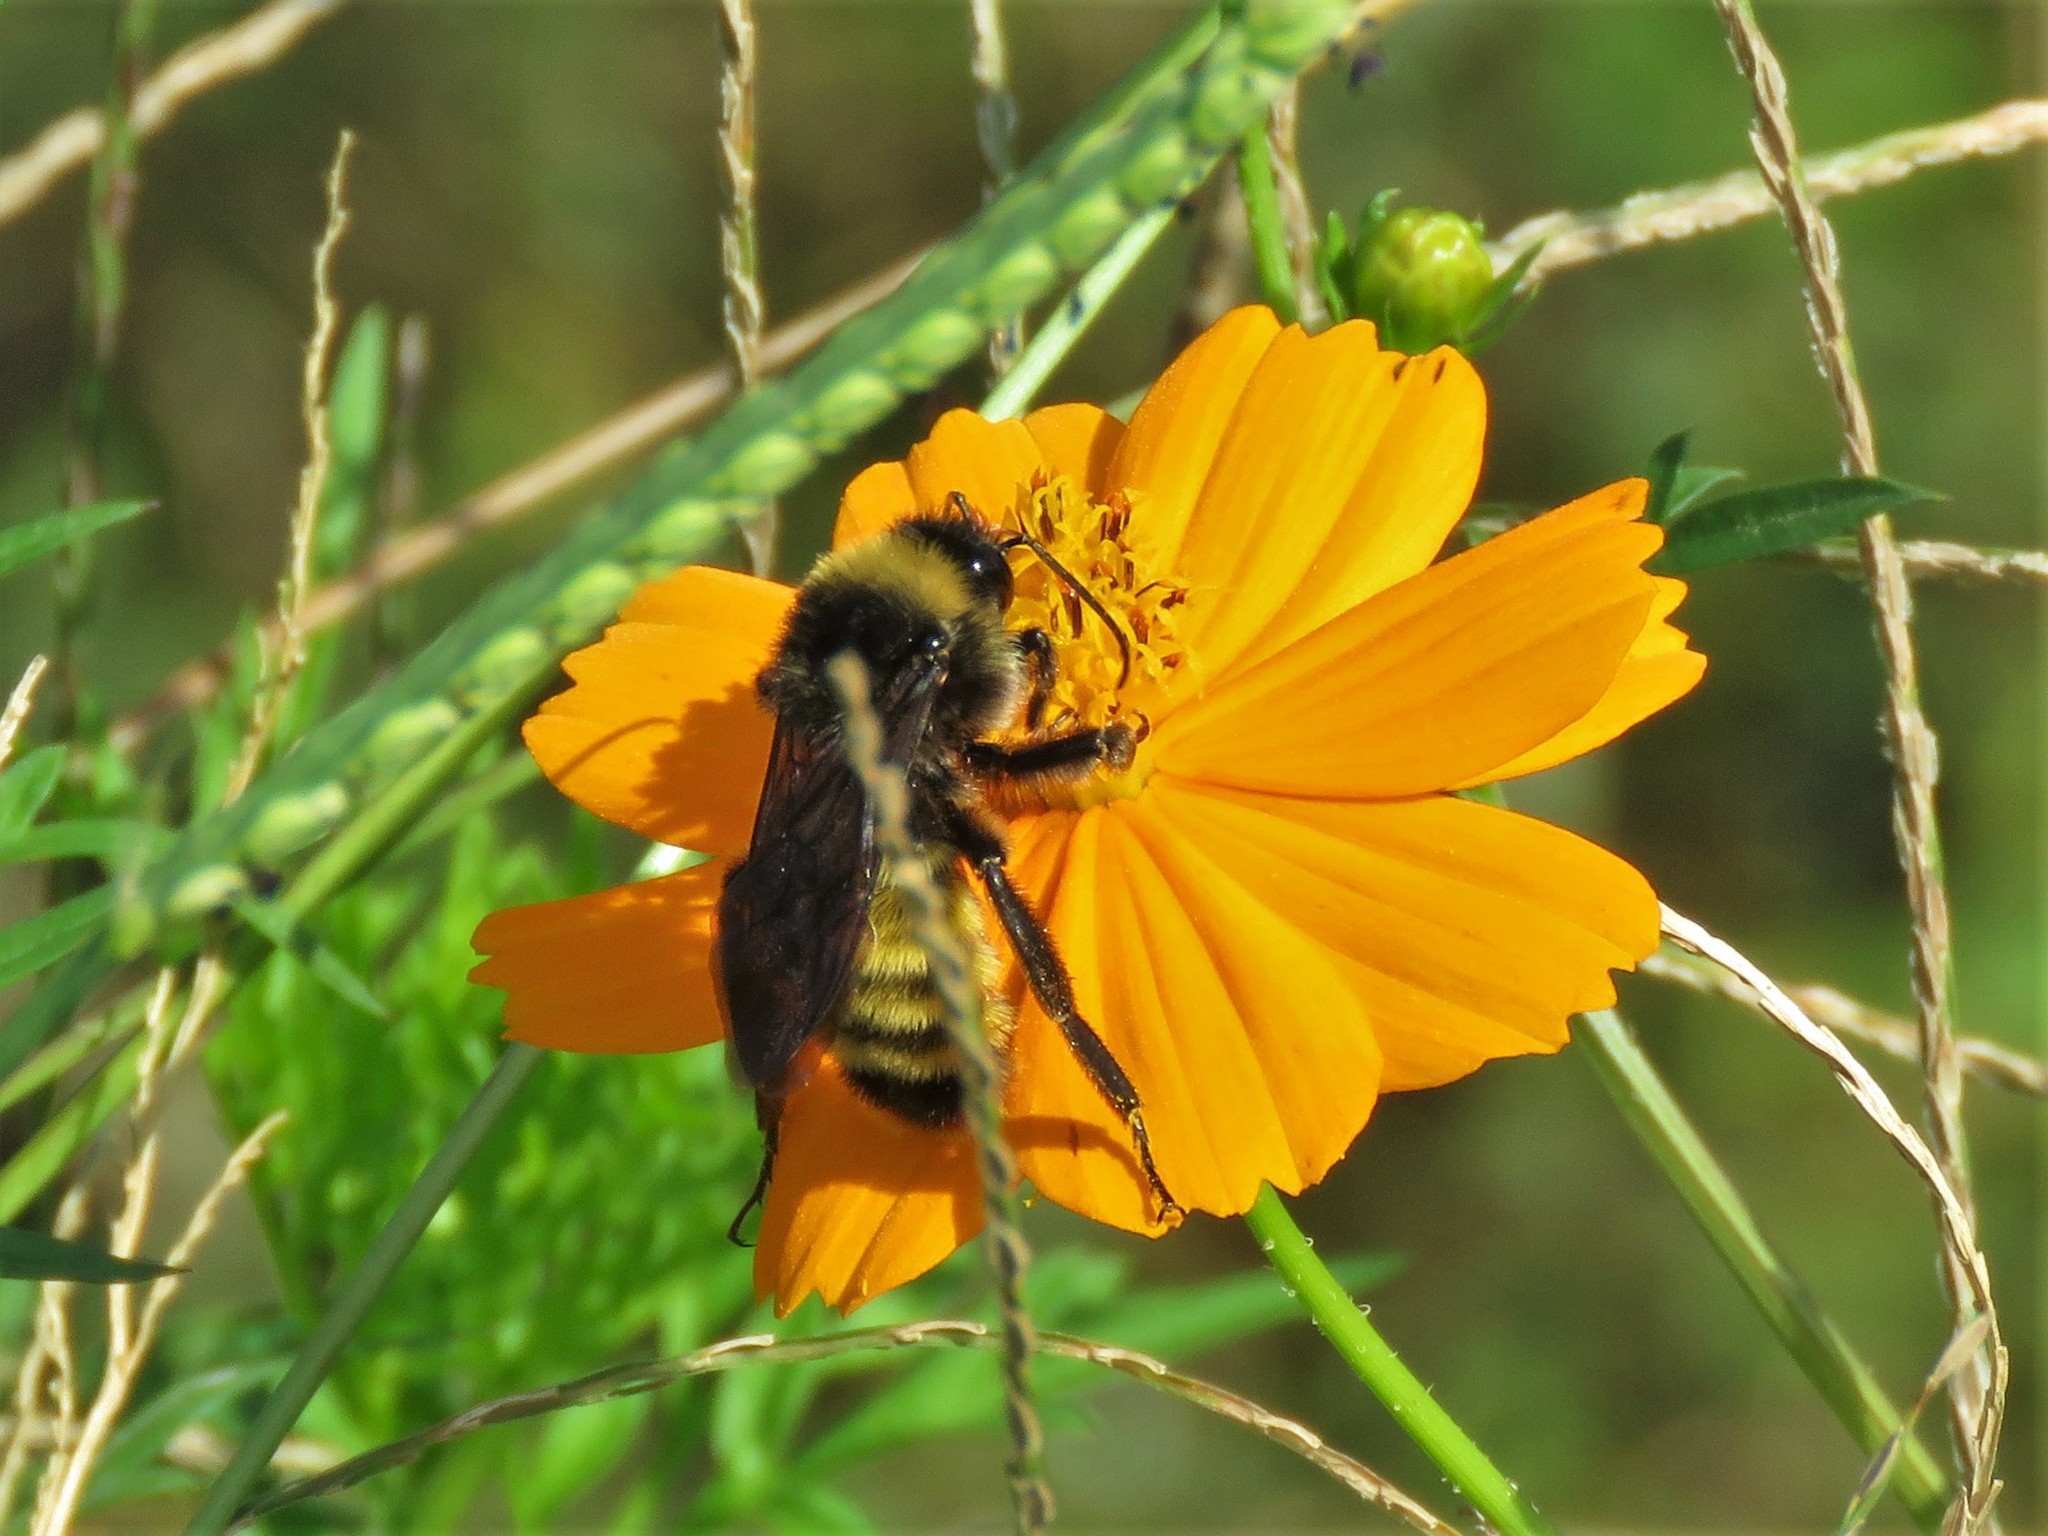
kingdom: Animalia
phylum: Arthropoda
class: Insecta
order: Hymenoptera
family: Apidae
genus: Bombus
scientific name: Bombus pensylvanicus
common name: Bumble bee
